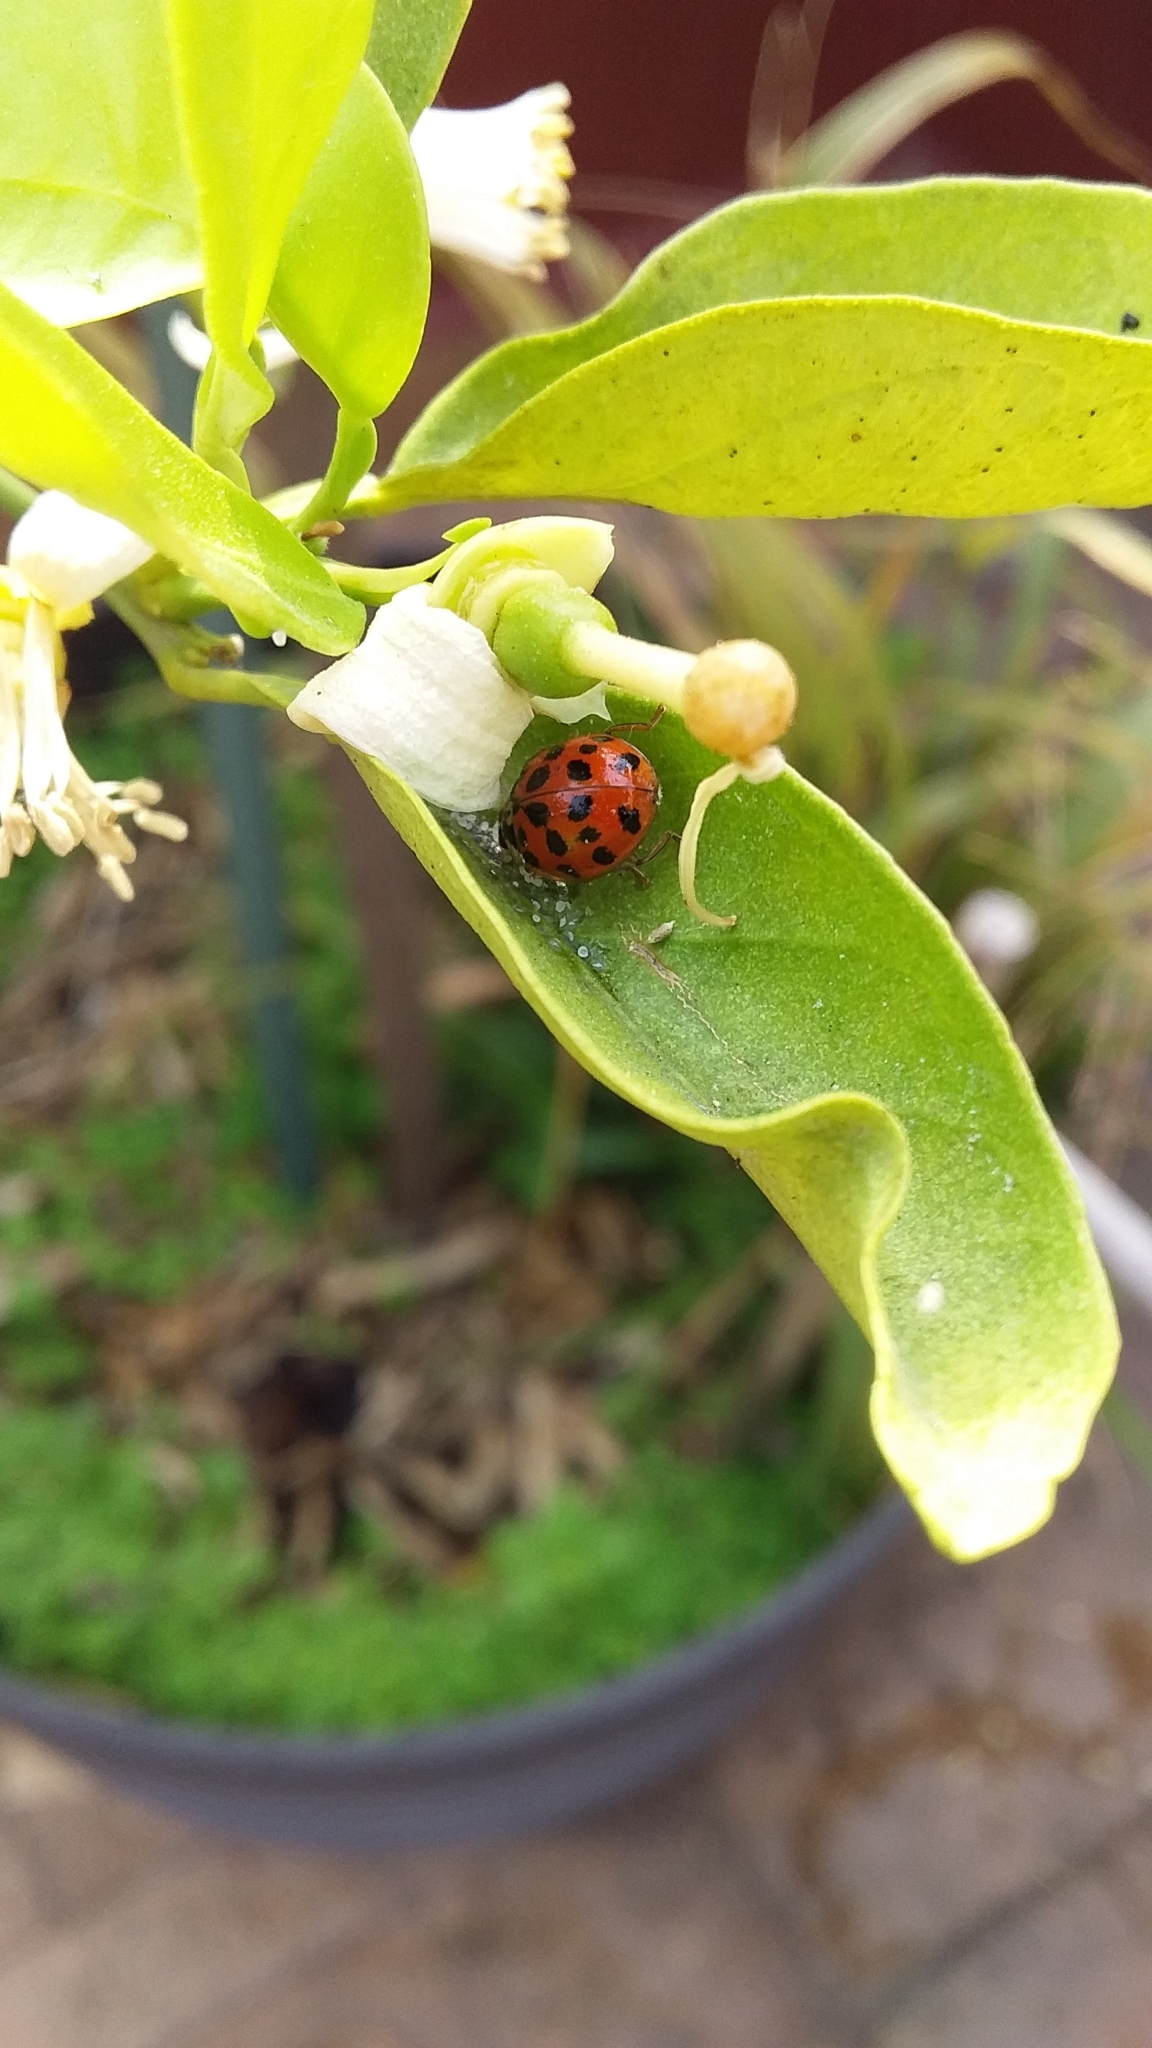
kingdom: Animalia
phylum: Arthropoda
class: Insecta
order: Coleoptera
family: Coccinellidae
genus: Harmonia
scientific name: Harmonia axyridis
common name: Harlequin ladybird
